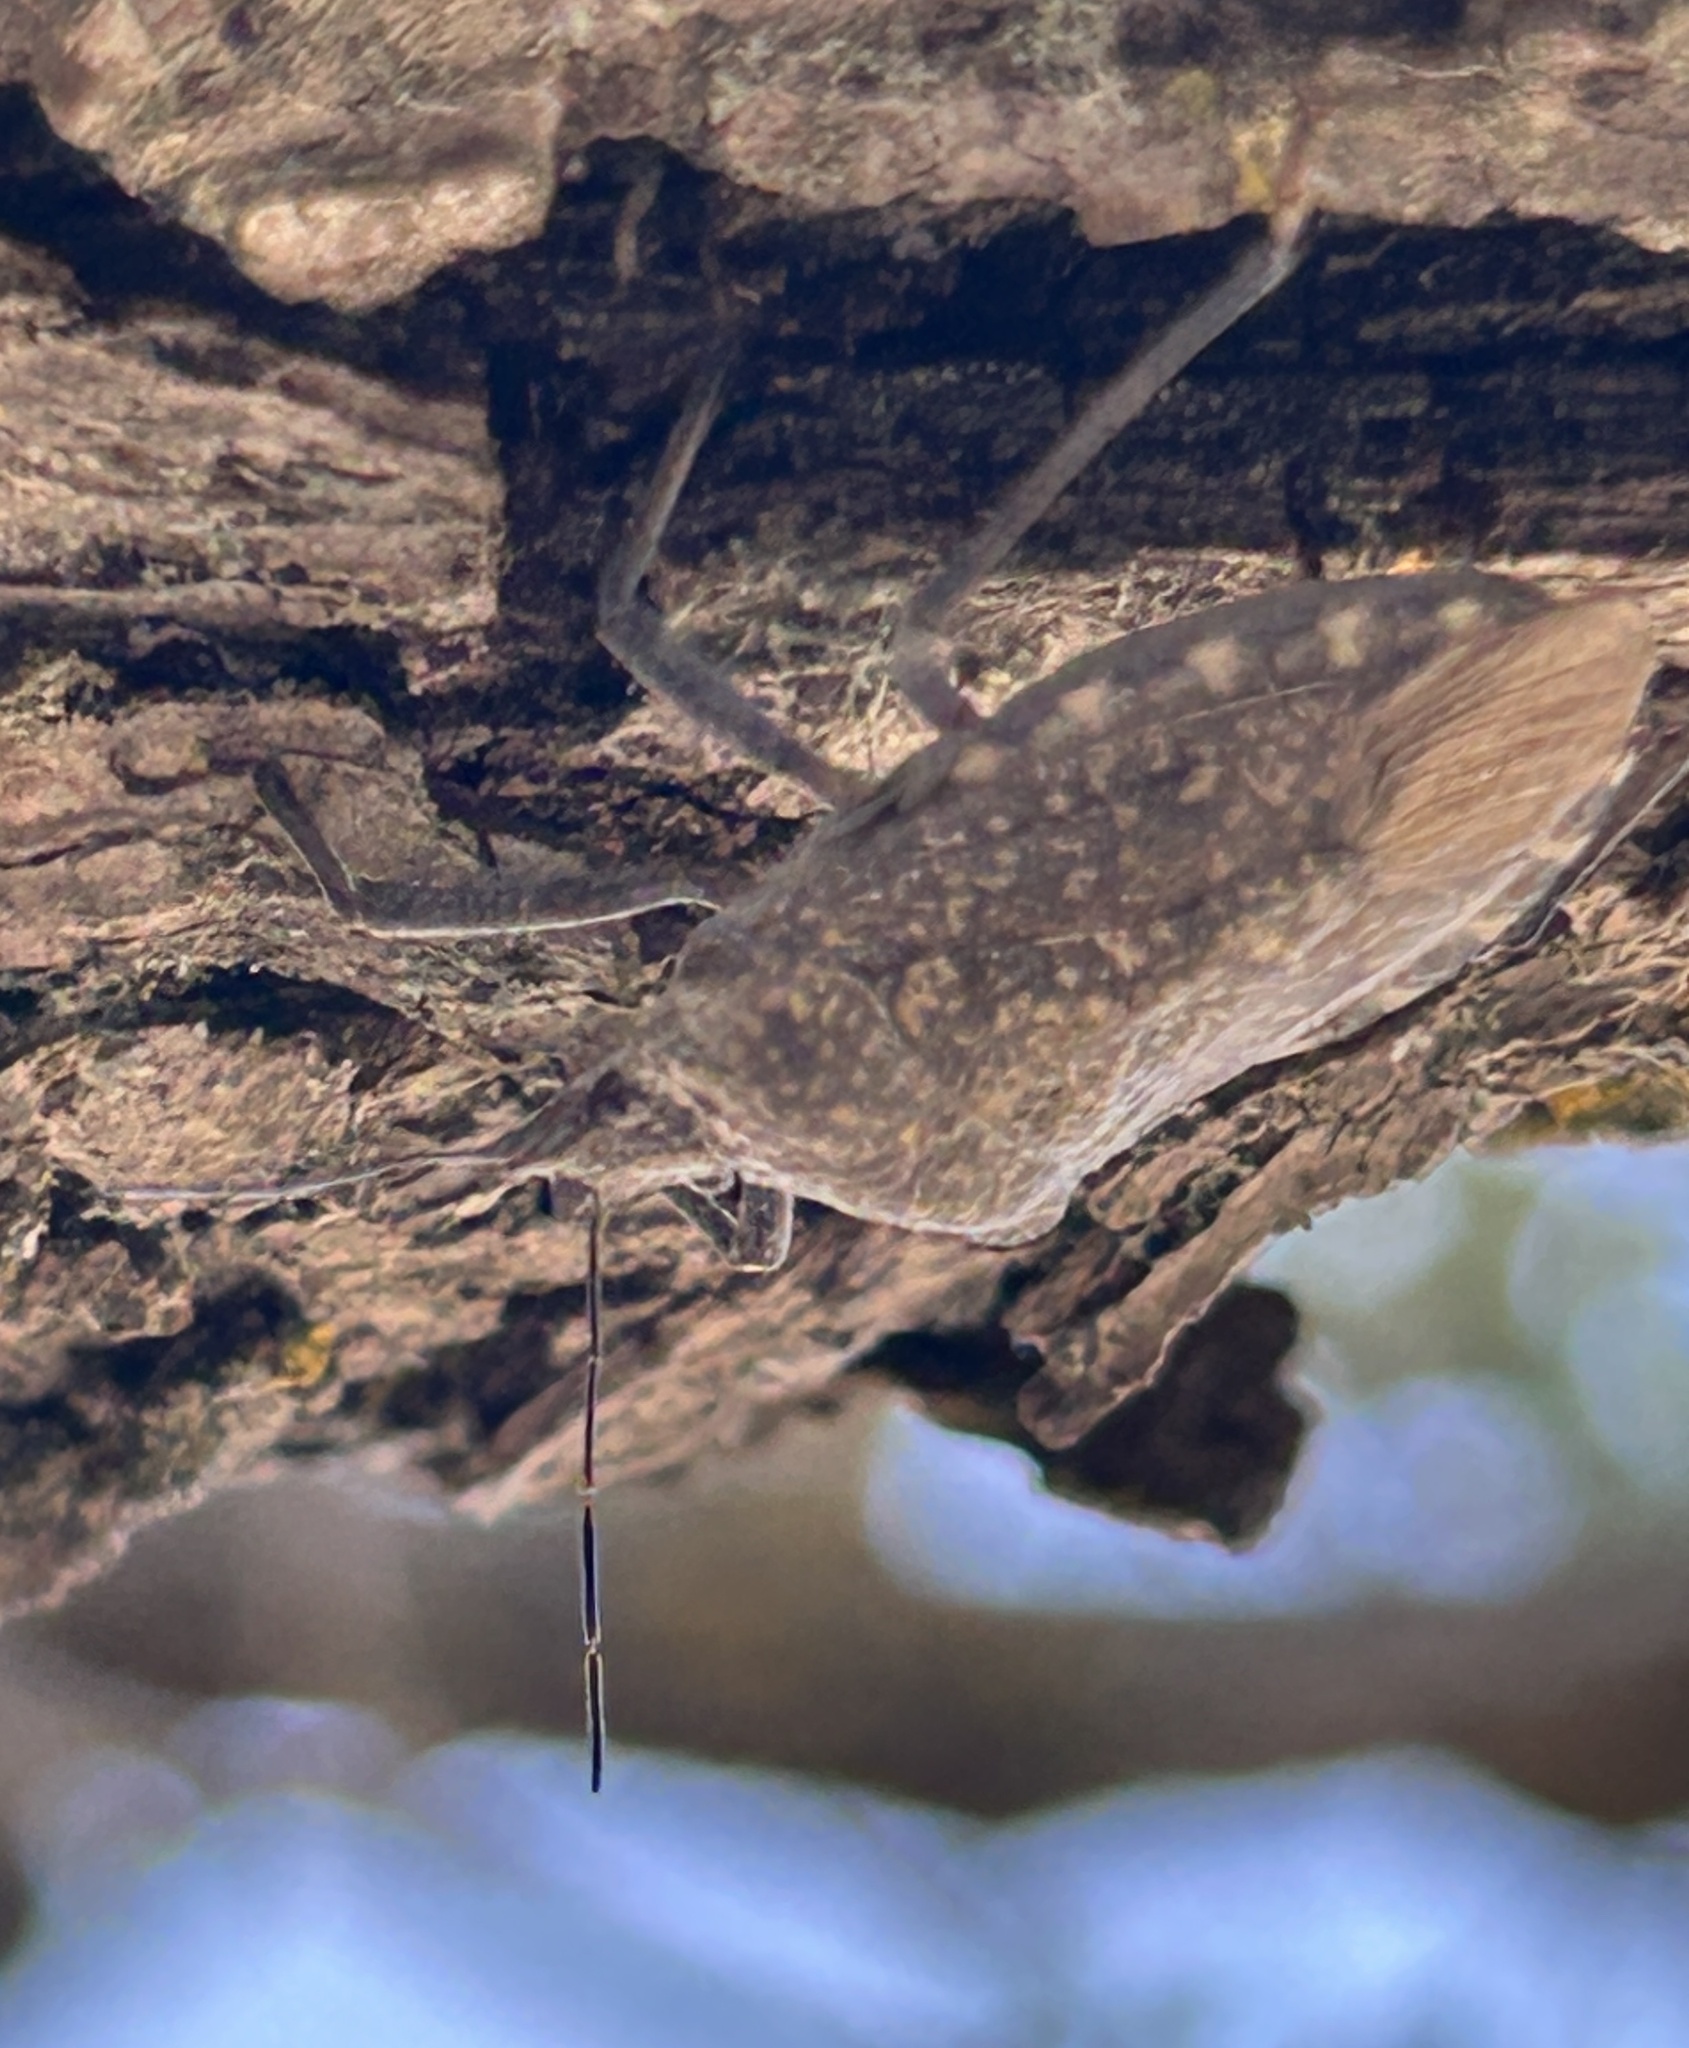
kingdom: Animalia
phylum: Arthropoda
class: Insecta
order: Hemiptera
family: Pentatomidae
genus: Apodiphus
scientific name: Apodiphus amygdali
